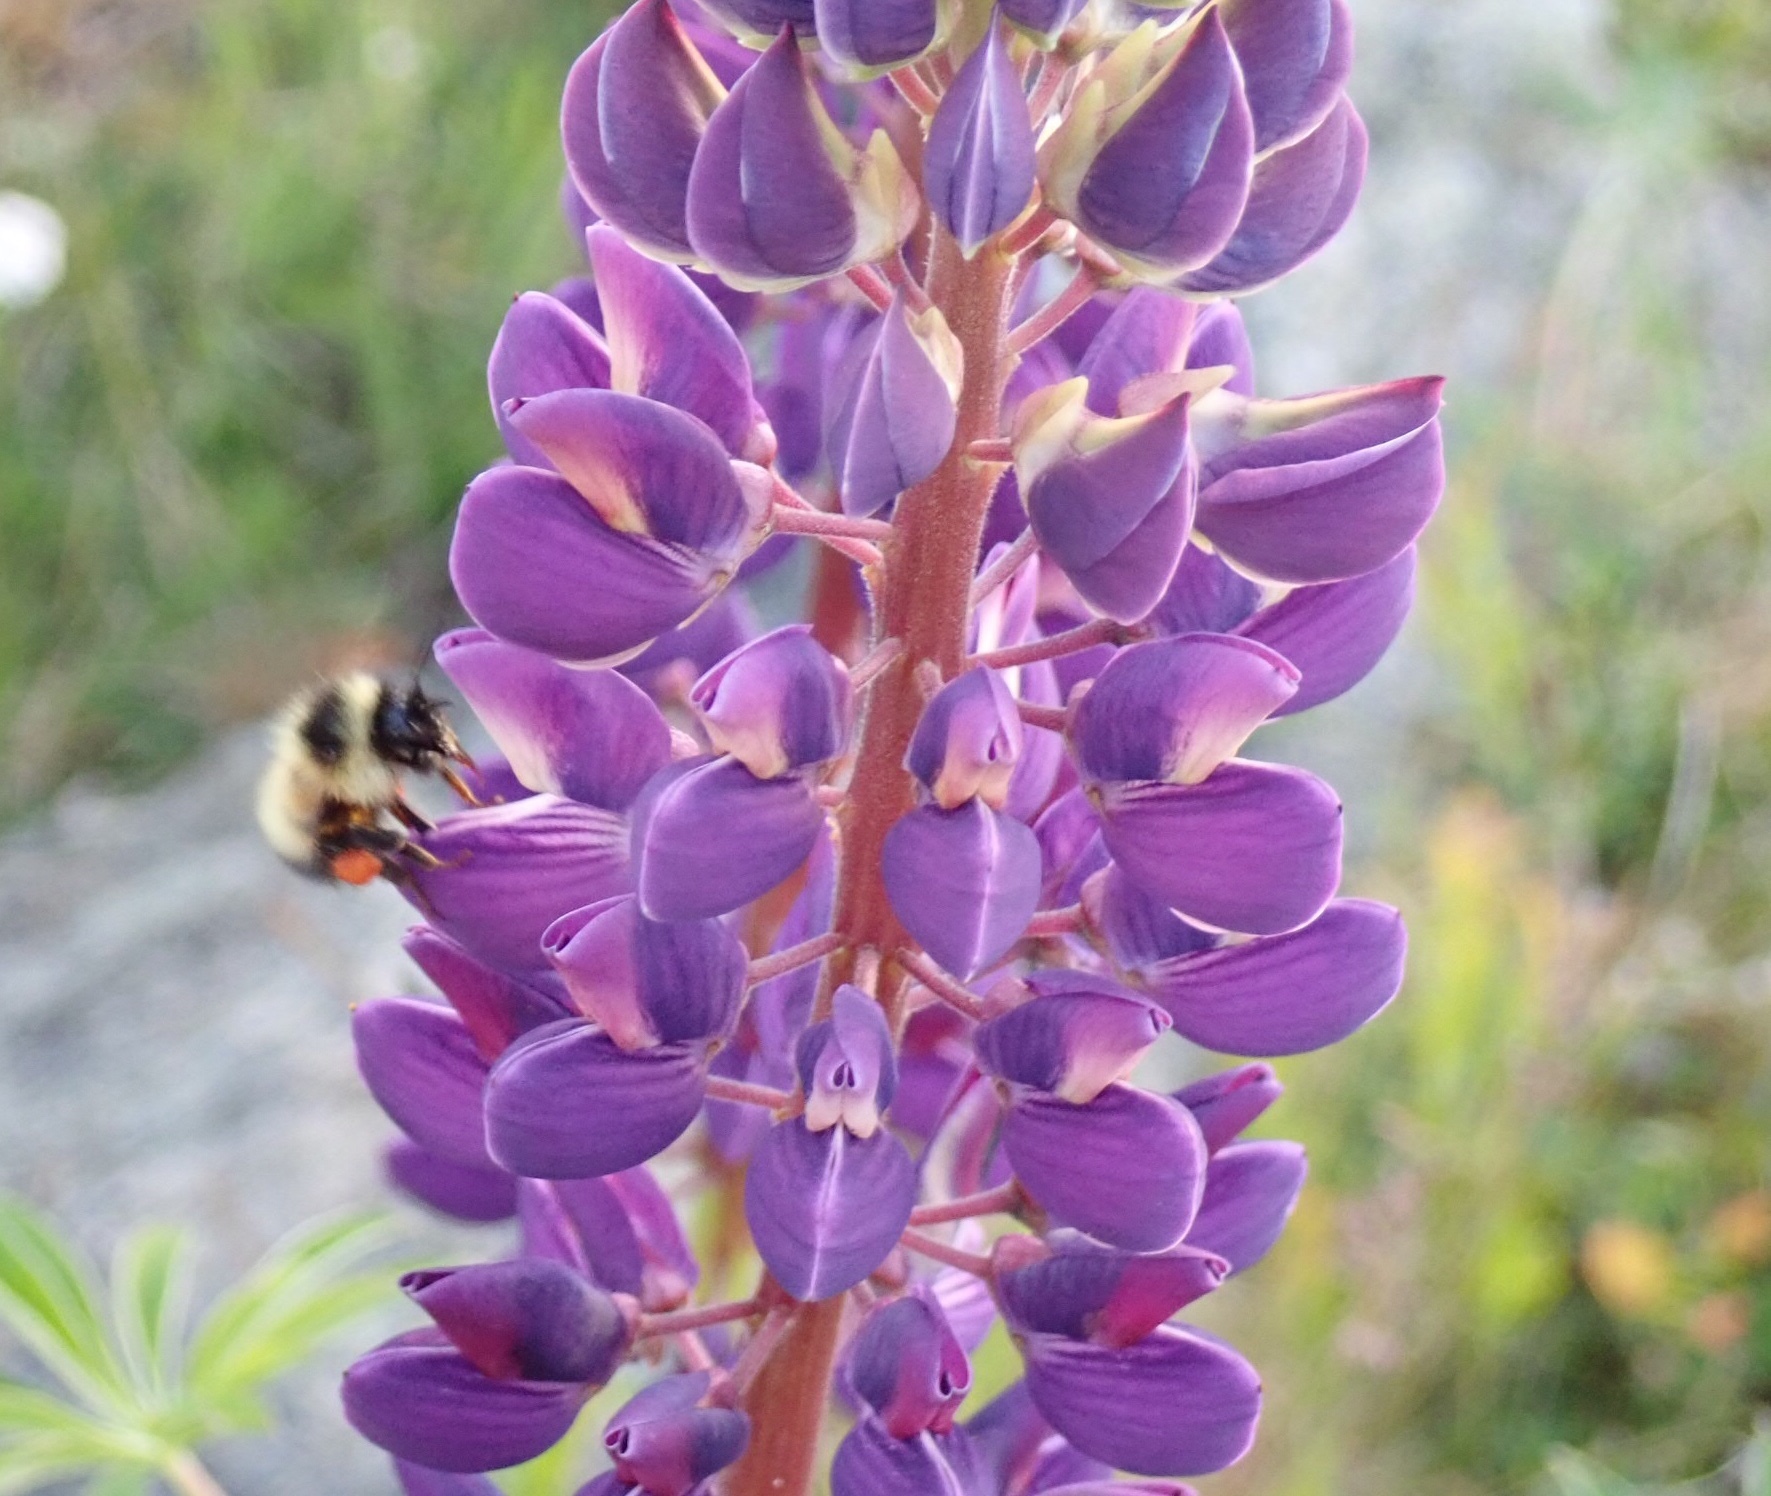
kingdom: Animalia
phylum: Arthropoda
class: Insecta
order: Hymenoptera
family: Apidae
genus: Bombus
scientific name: Bombus vagans
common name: Half-black bumble bee
